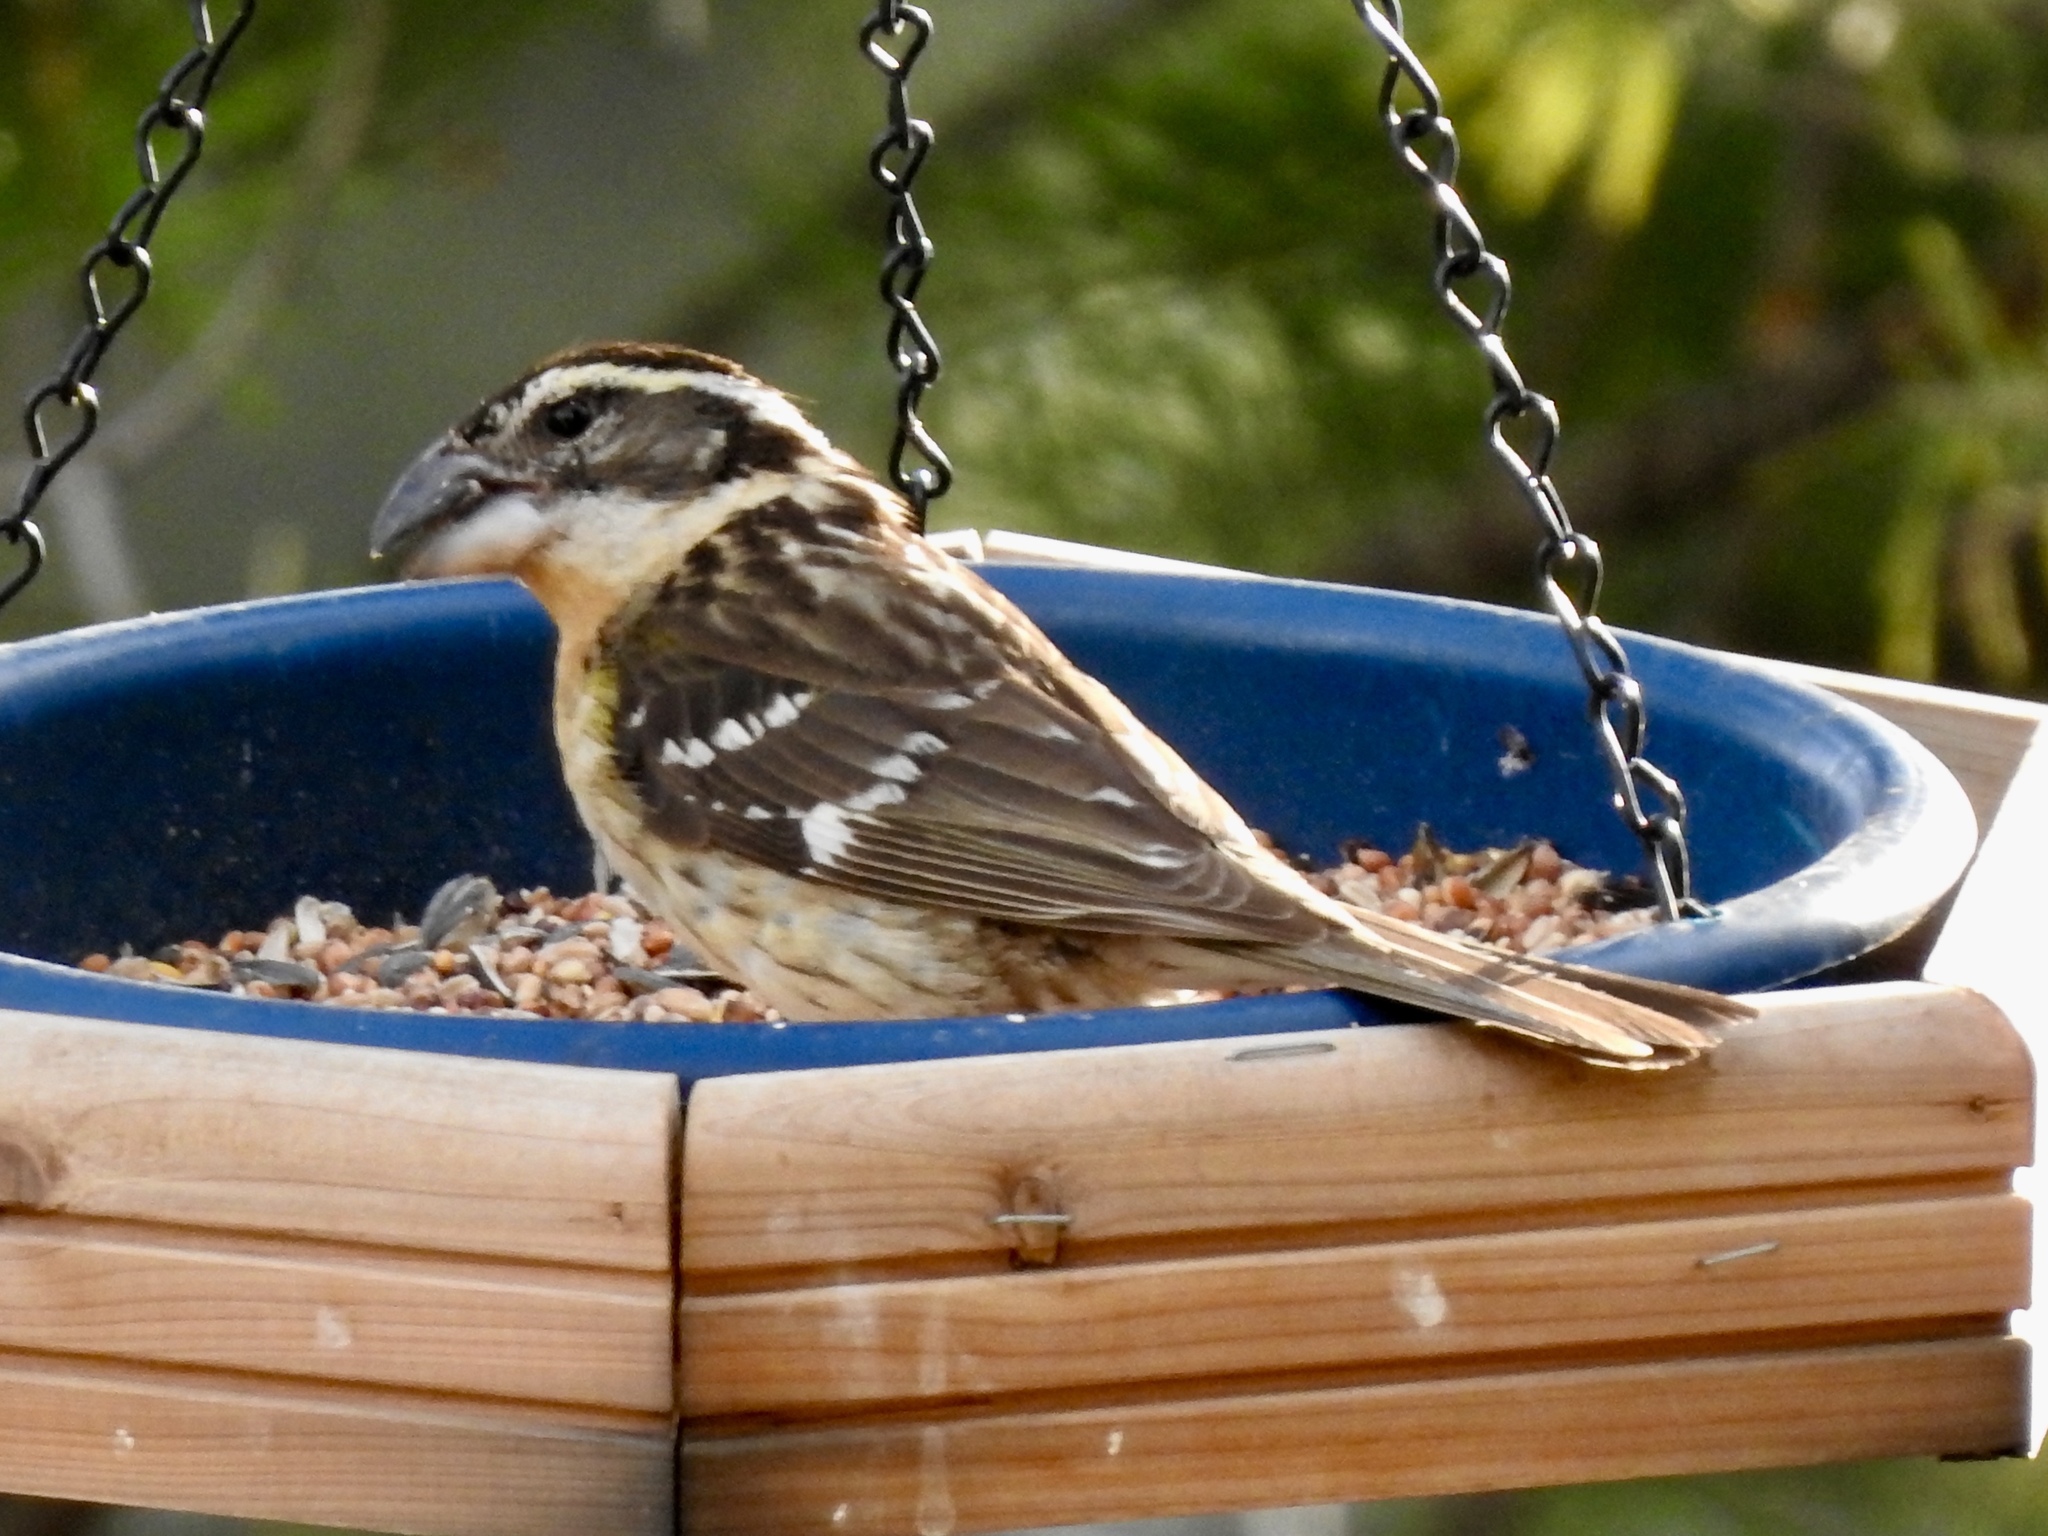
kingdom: Animalia
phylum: Chordata
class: Aves
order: Passeriformes
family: Cardinalidae
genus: Pheucticus
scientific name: Pheucticus melanocephalus
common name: Black-headed grosbeak
